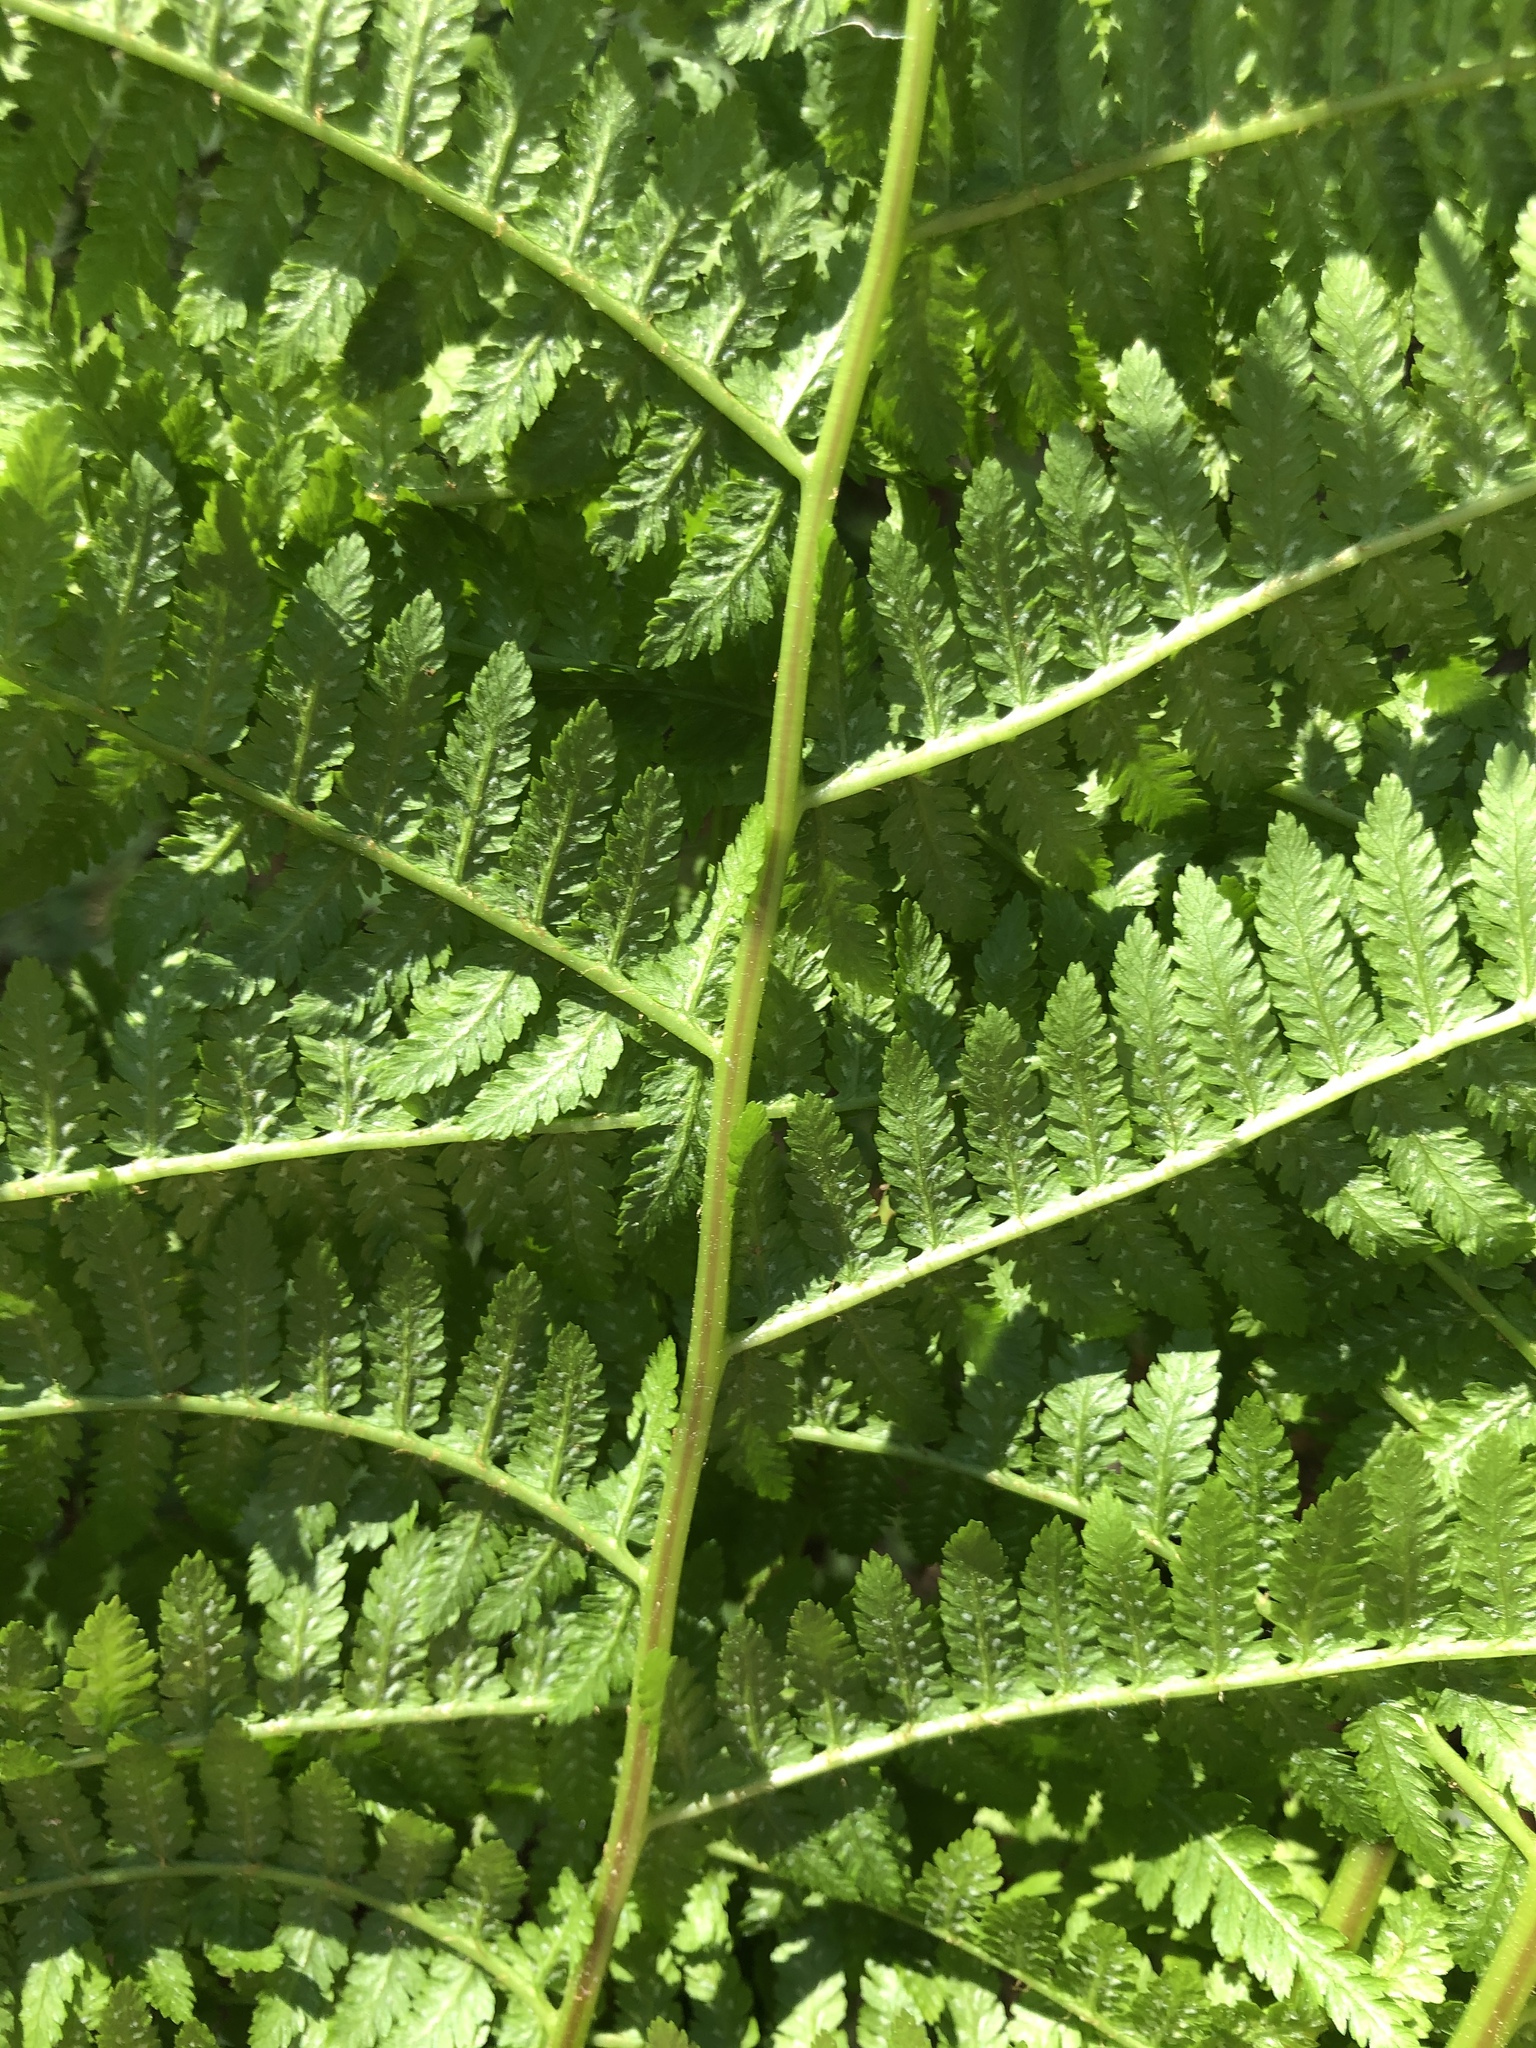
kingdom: Plantae
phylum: Tracheophyta
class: Polypodiopsida
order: Polypodiales
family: Athyriaceae
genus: Athyrium
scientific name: Athyrium filix-femina
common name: Lady fern
